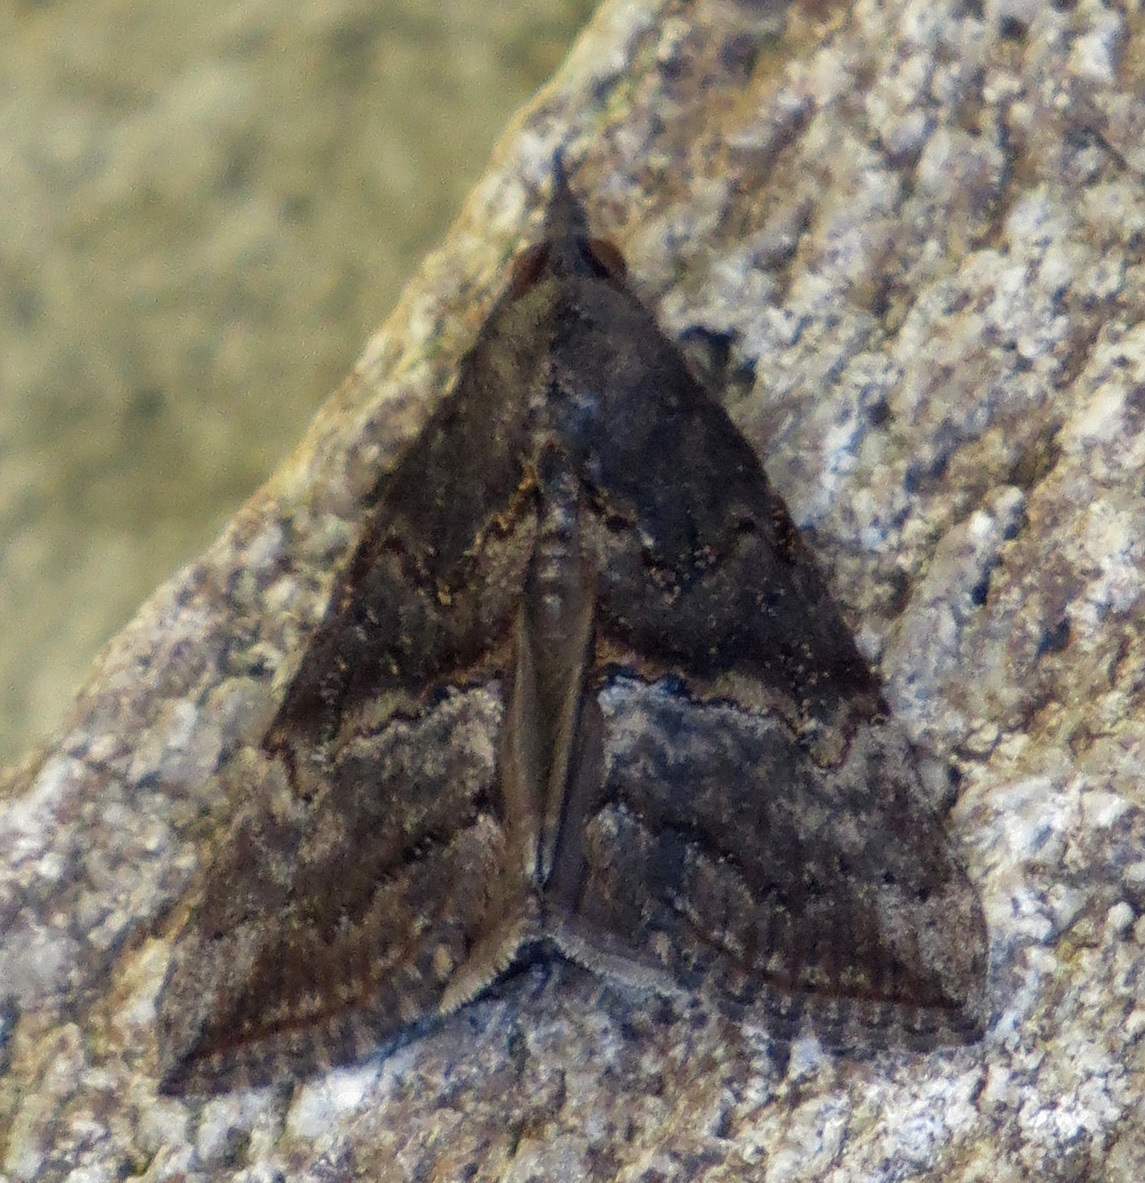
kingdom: Animalia
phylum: Arthropoda
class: Insecta
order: Lepidoptera
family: Erebidae
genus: Hypena
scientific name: Hypena scabra
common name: Green cloverworm
